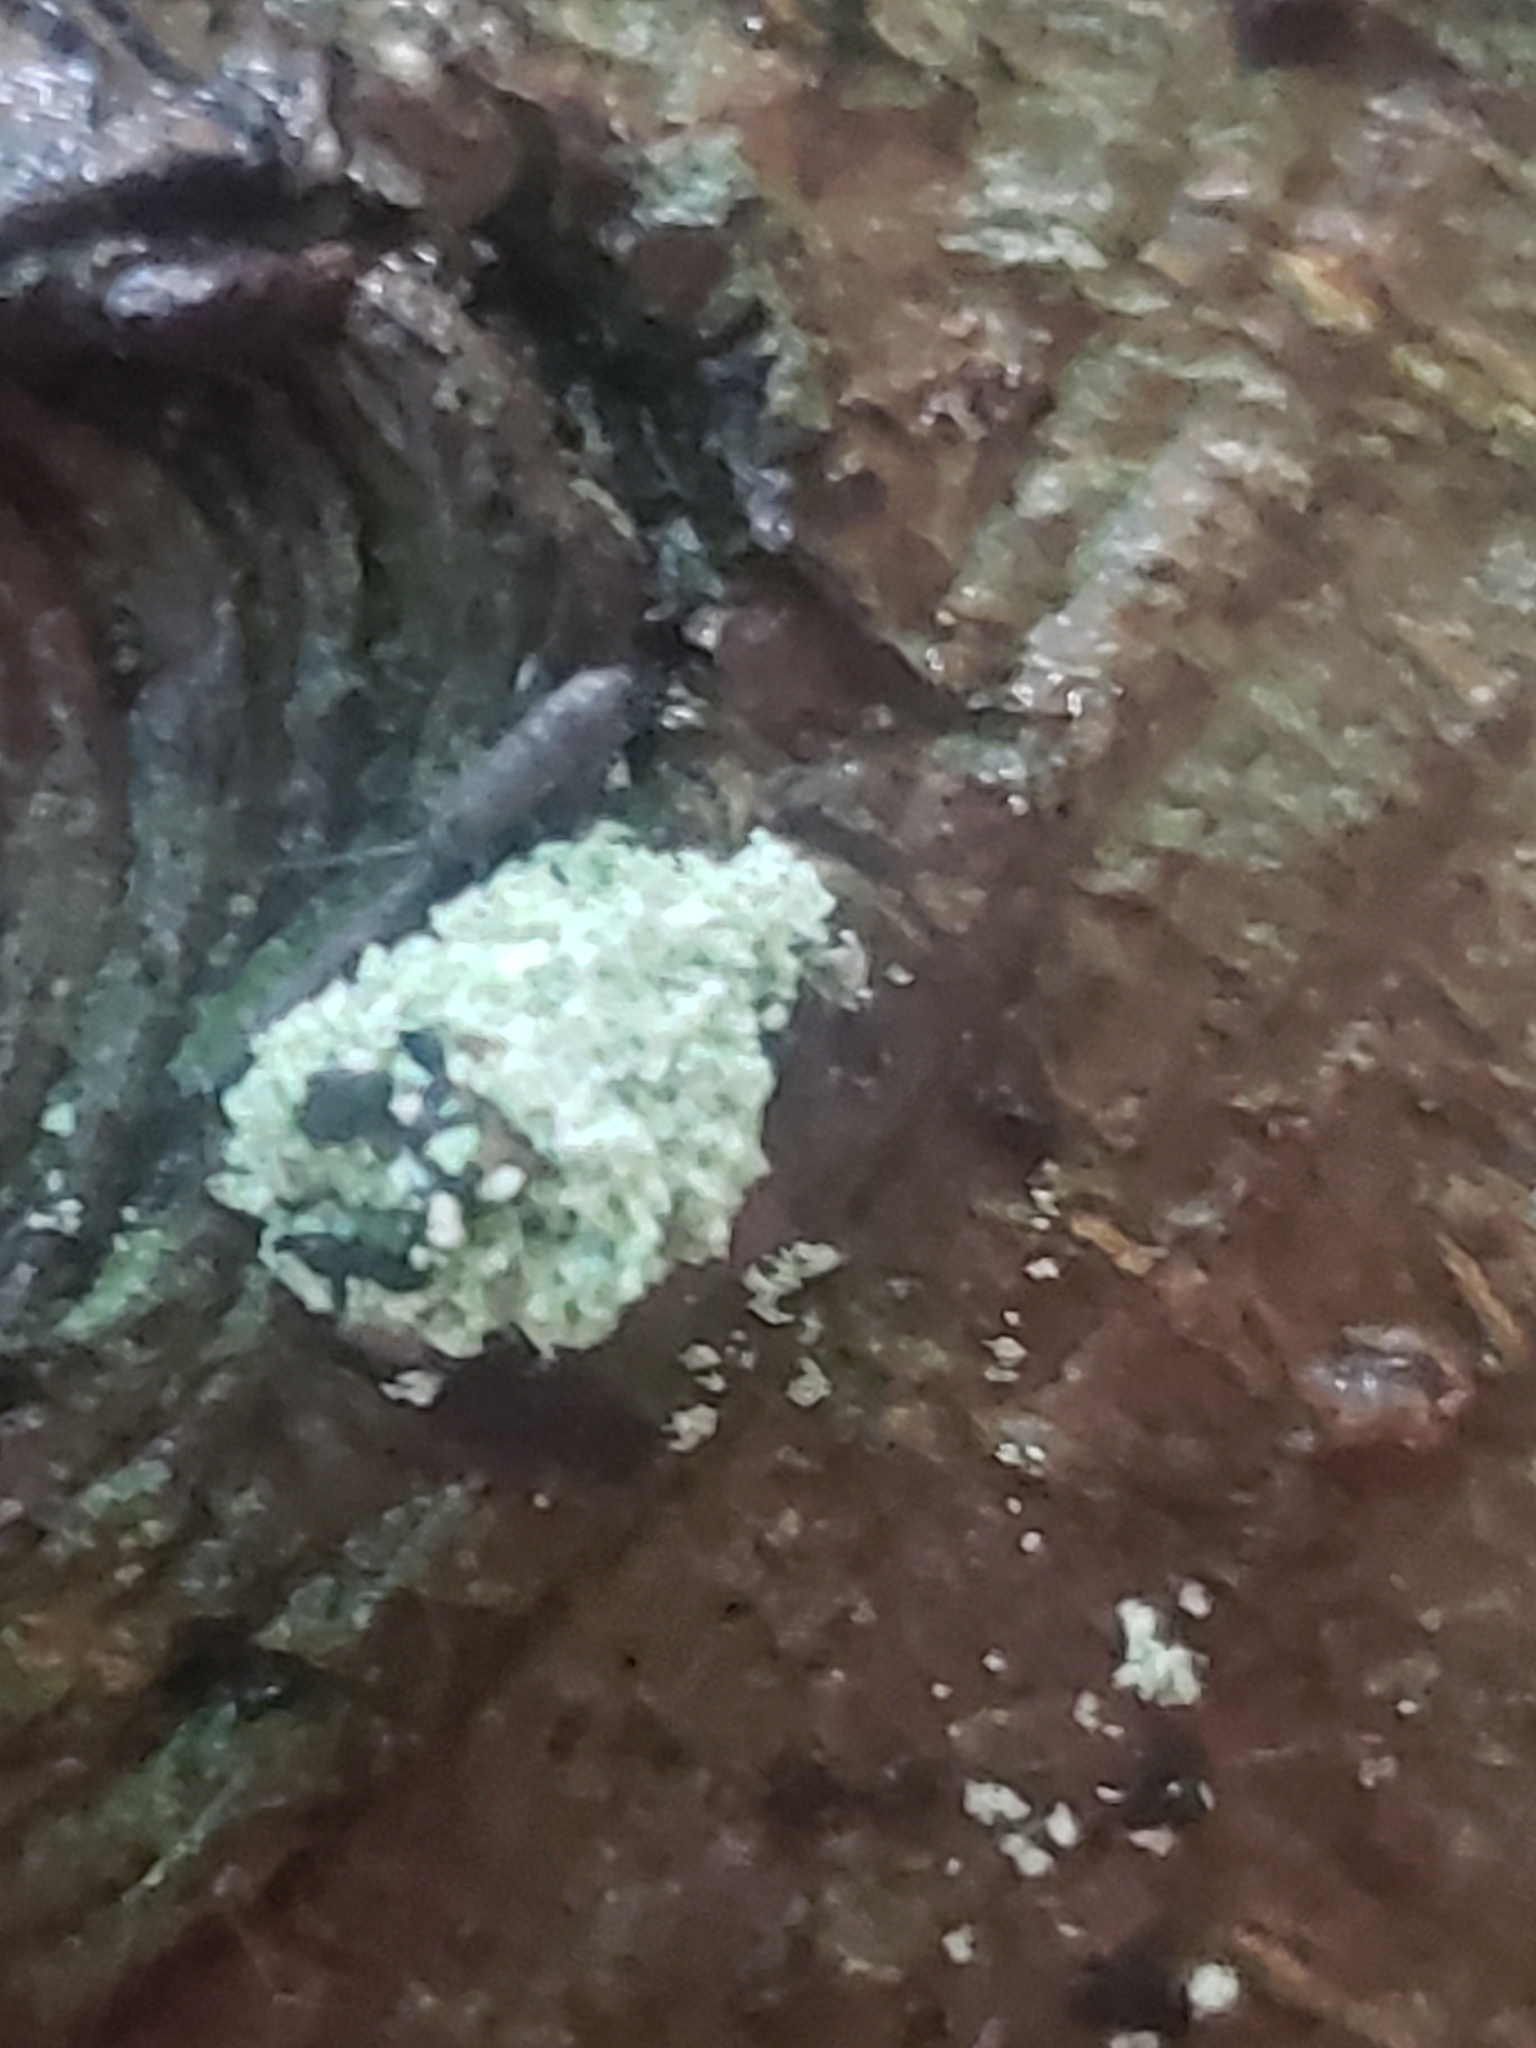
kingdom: Animalia
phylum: Arthropoda
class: Insecta
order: Neuroptera
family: Chrysopidae
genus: Leucochrysa
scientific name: Leucochrysa pavida
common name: Lichen-carrying green lacewing
